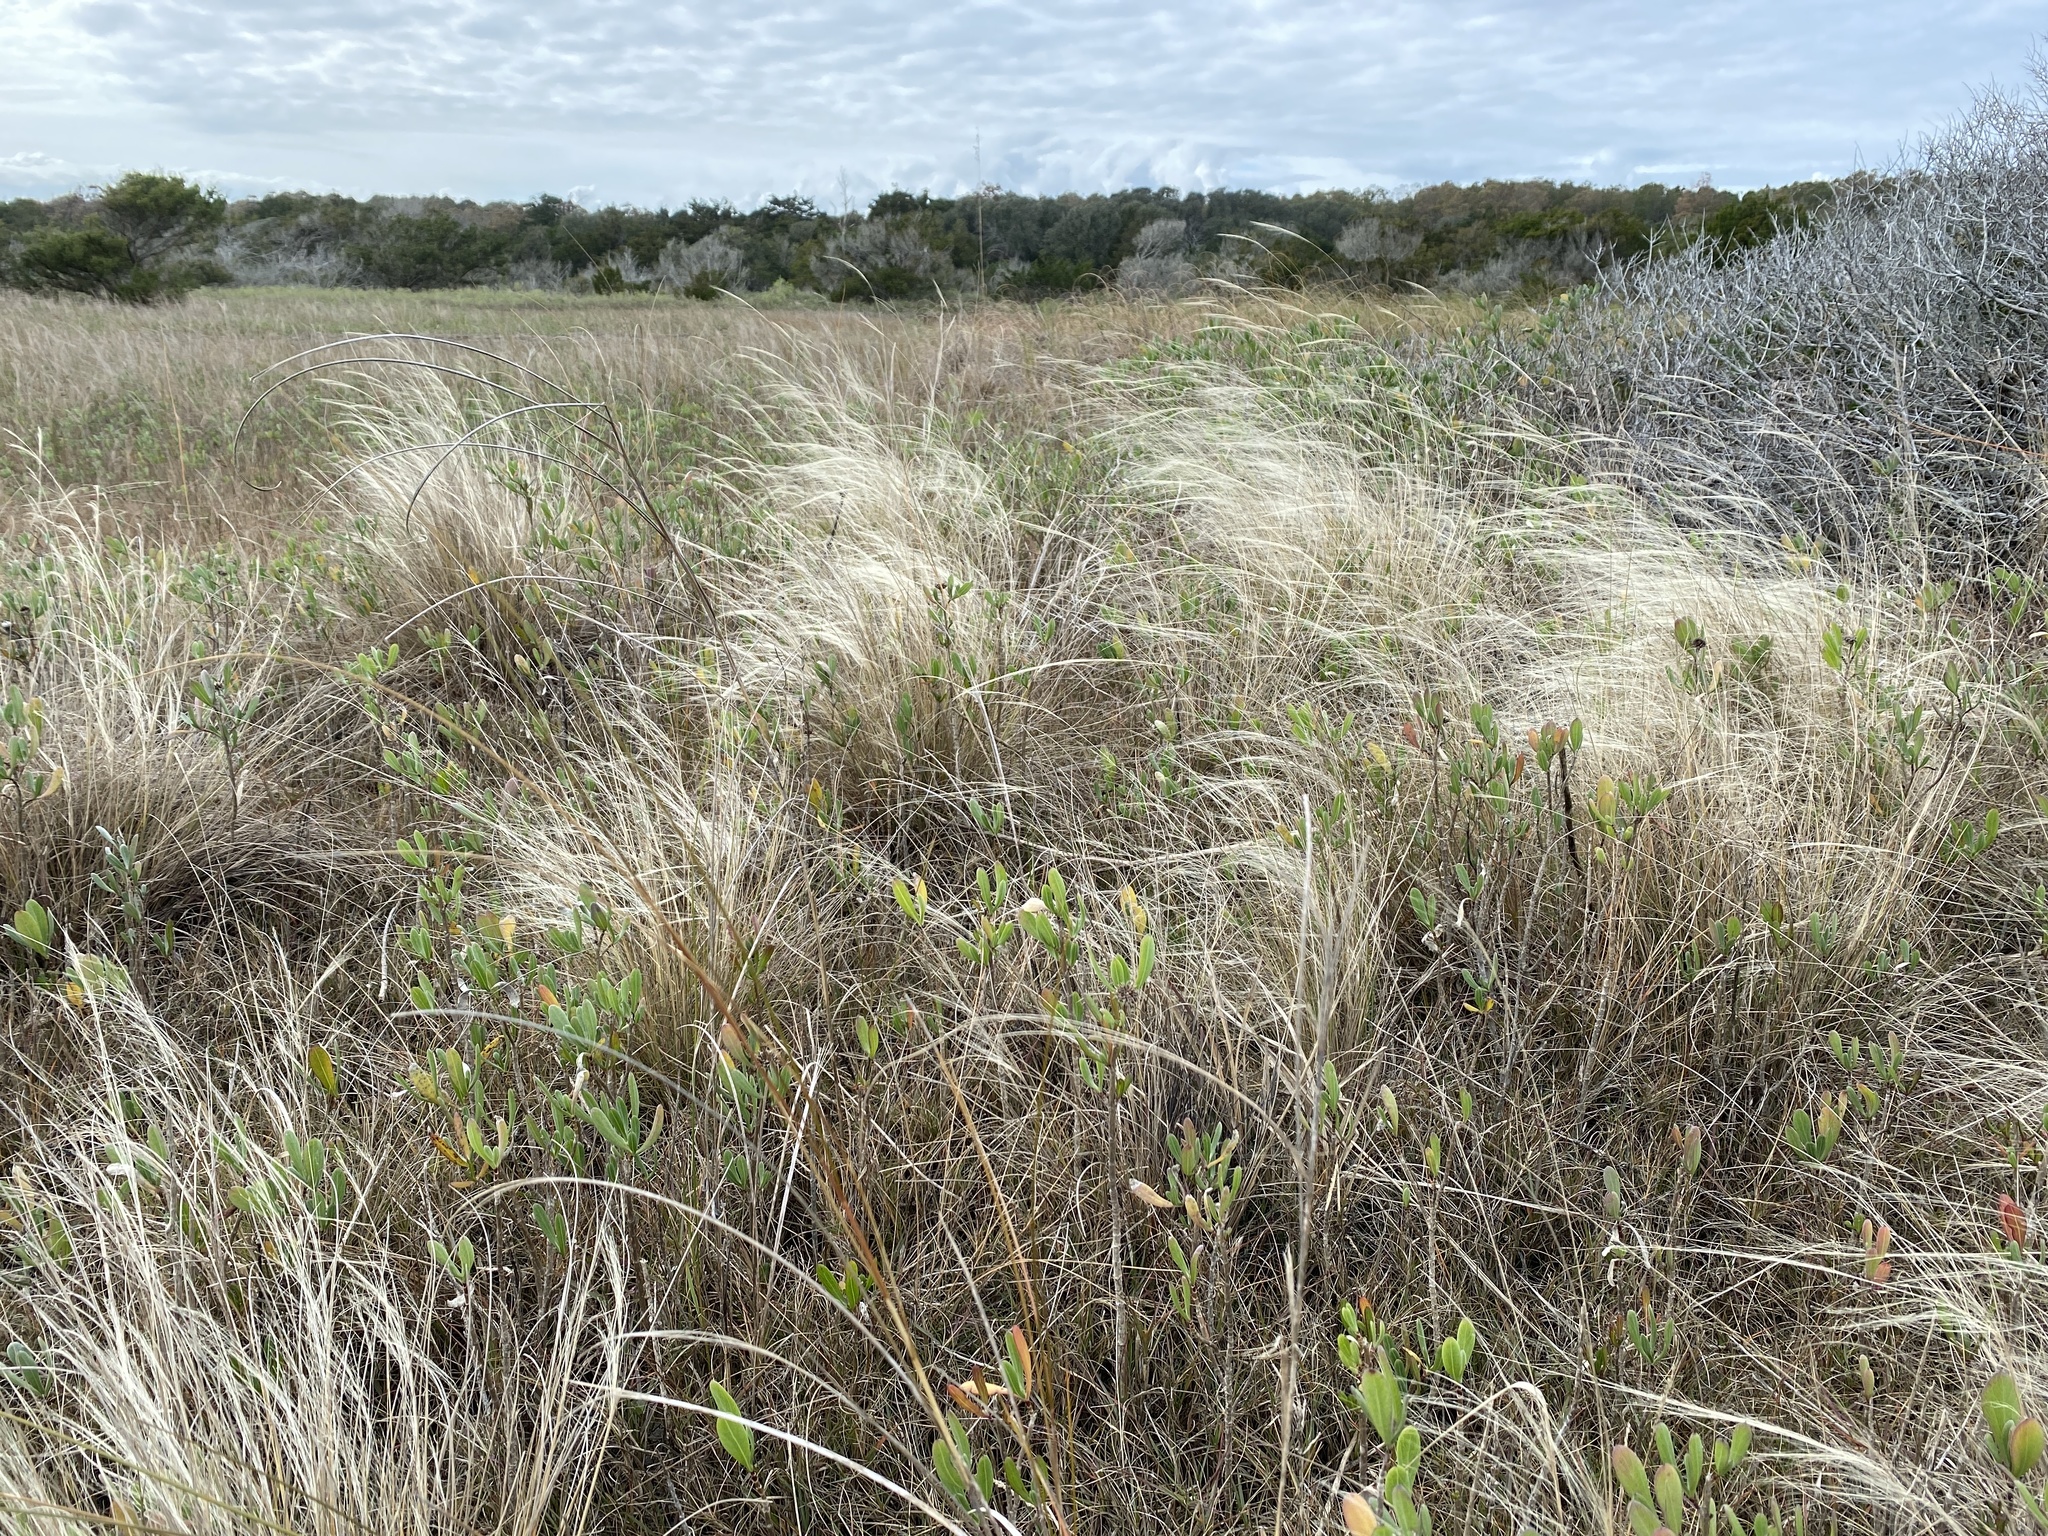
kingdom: Plantae
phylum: Tracheophyta
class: Liliopsida
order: Poales
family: Poaceae
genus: Muhlenbergia
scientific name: Muhlenbergia sericea
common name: Dune-hair grass
